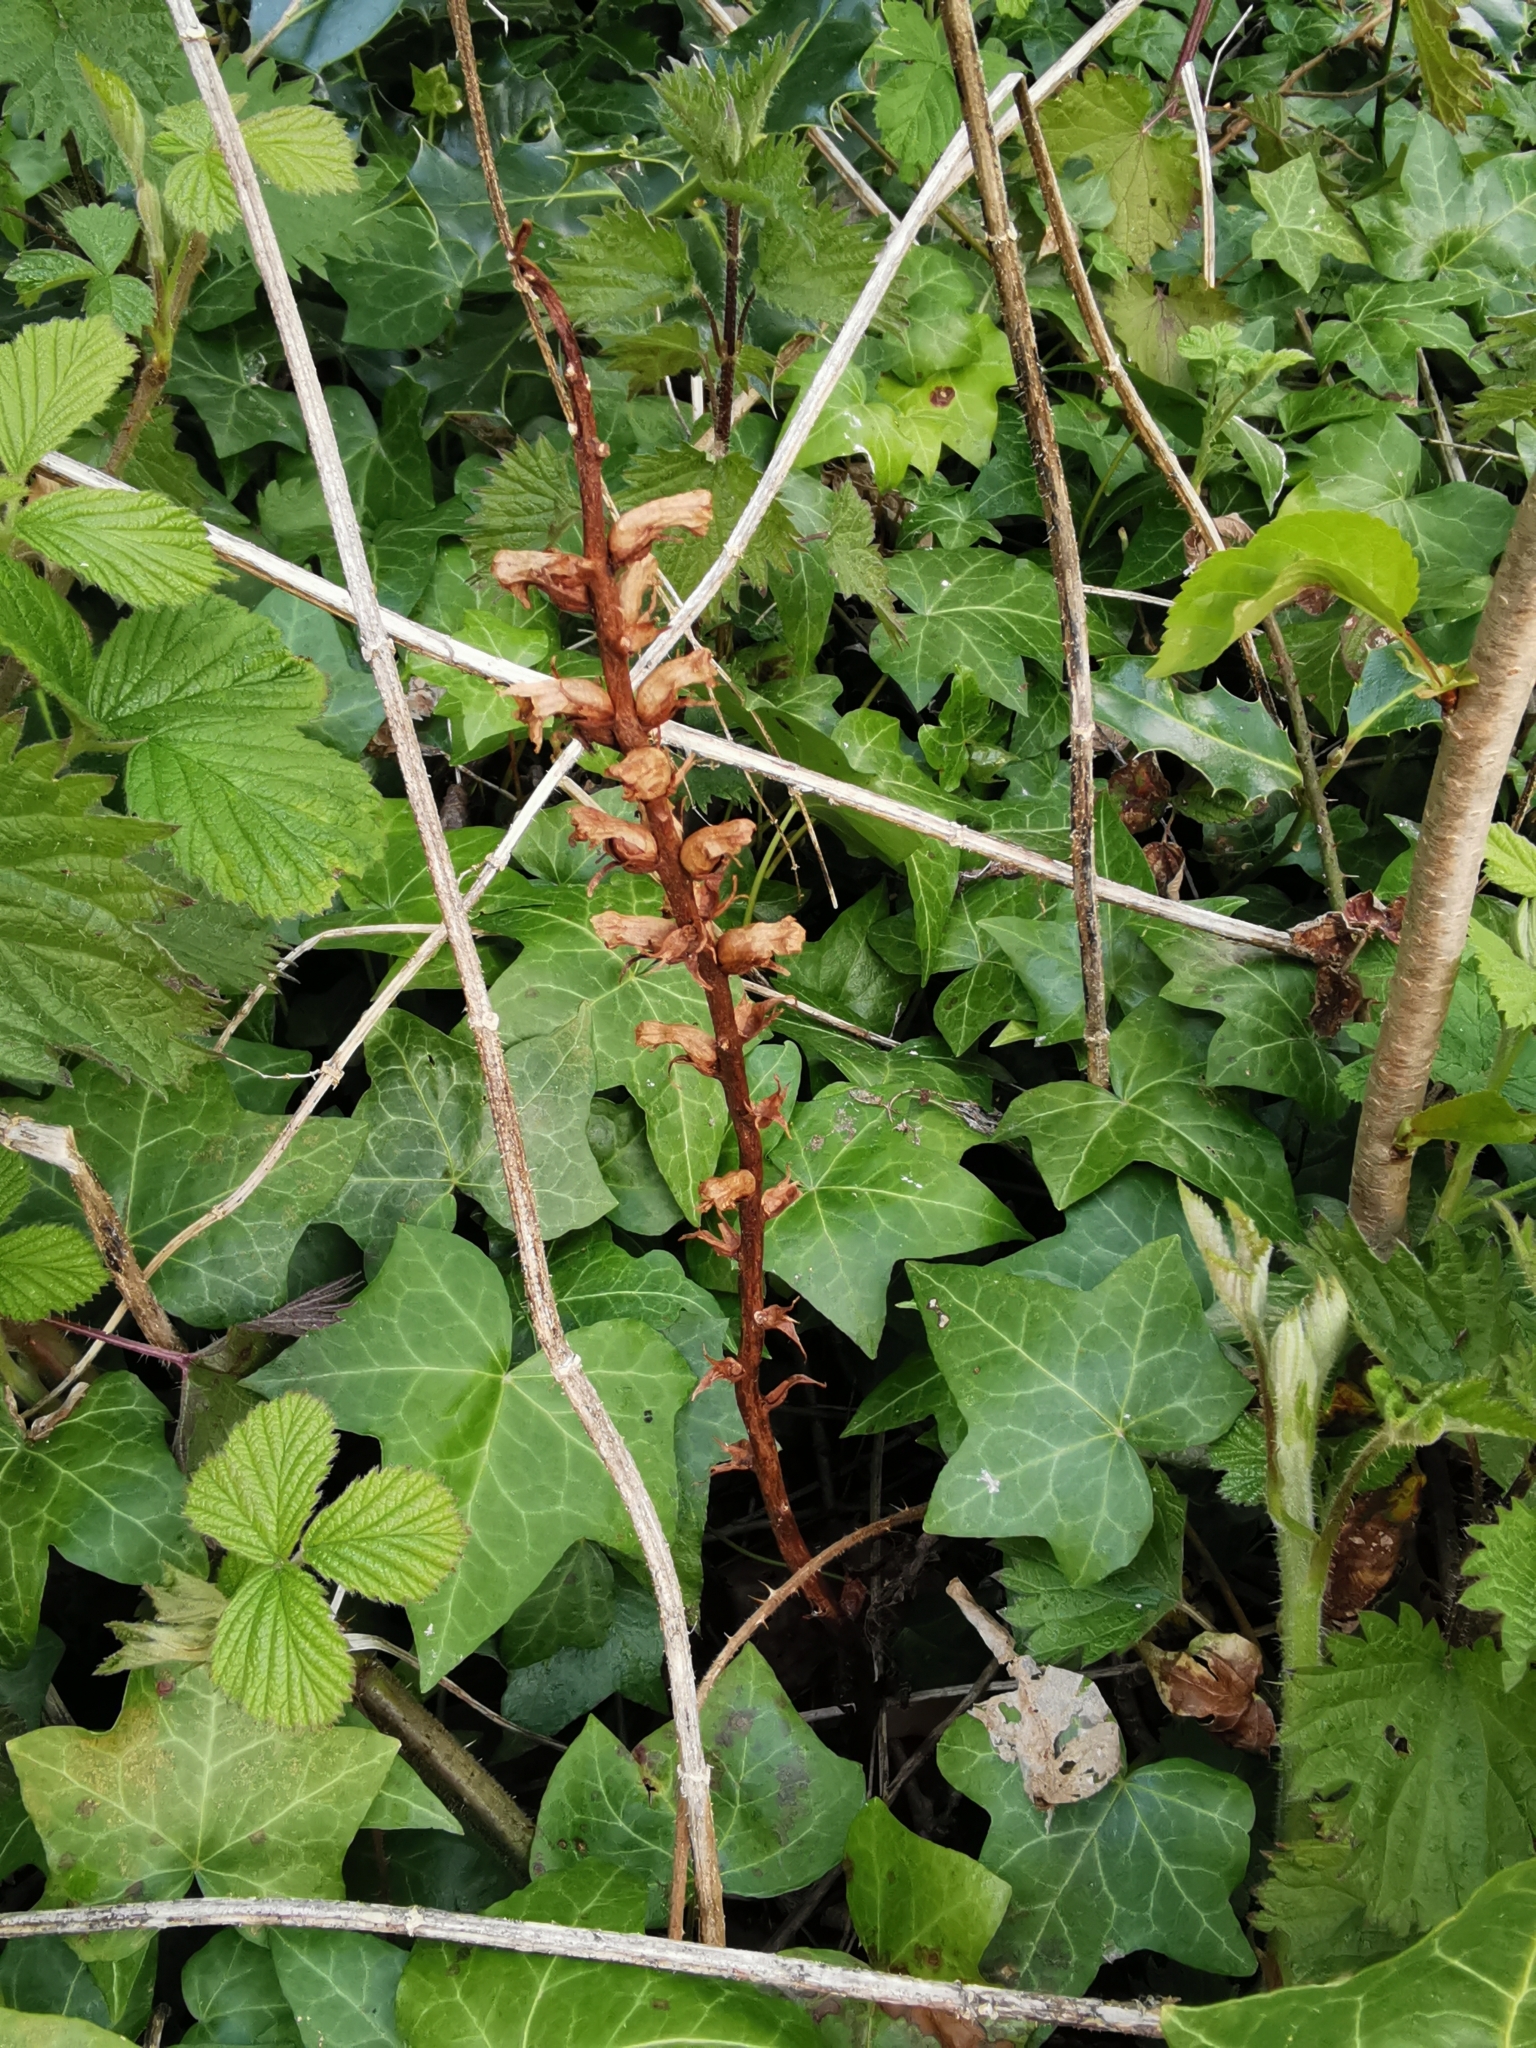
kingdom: Plantae
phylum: Tracheophyta
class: Magnoliopsida
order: Lamiales
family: Orobanchaceae
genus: Orobanche
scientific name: Orobanche hederae
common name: Ivy broomrape
